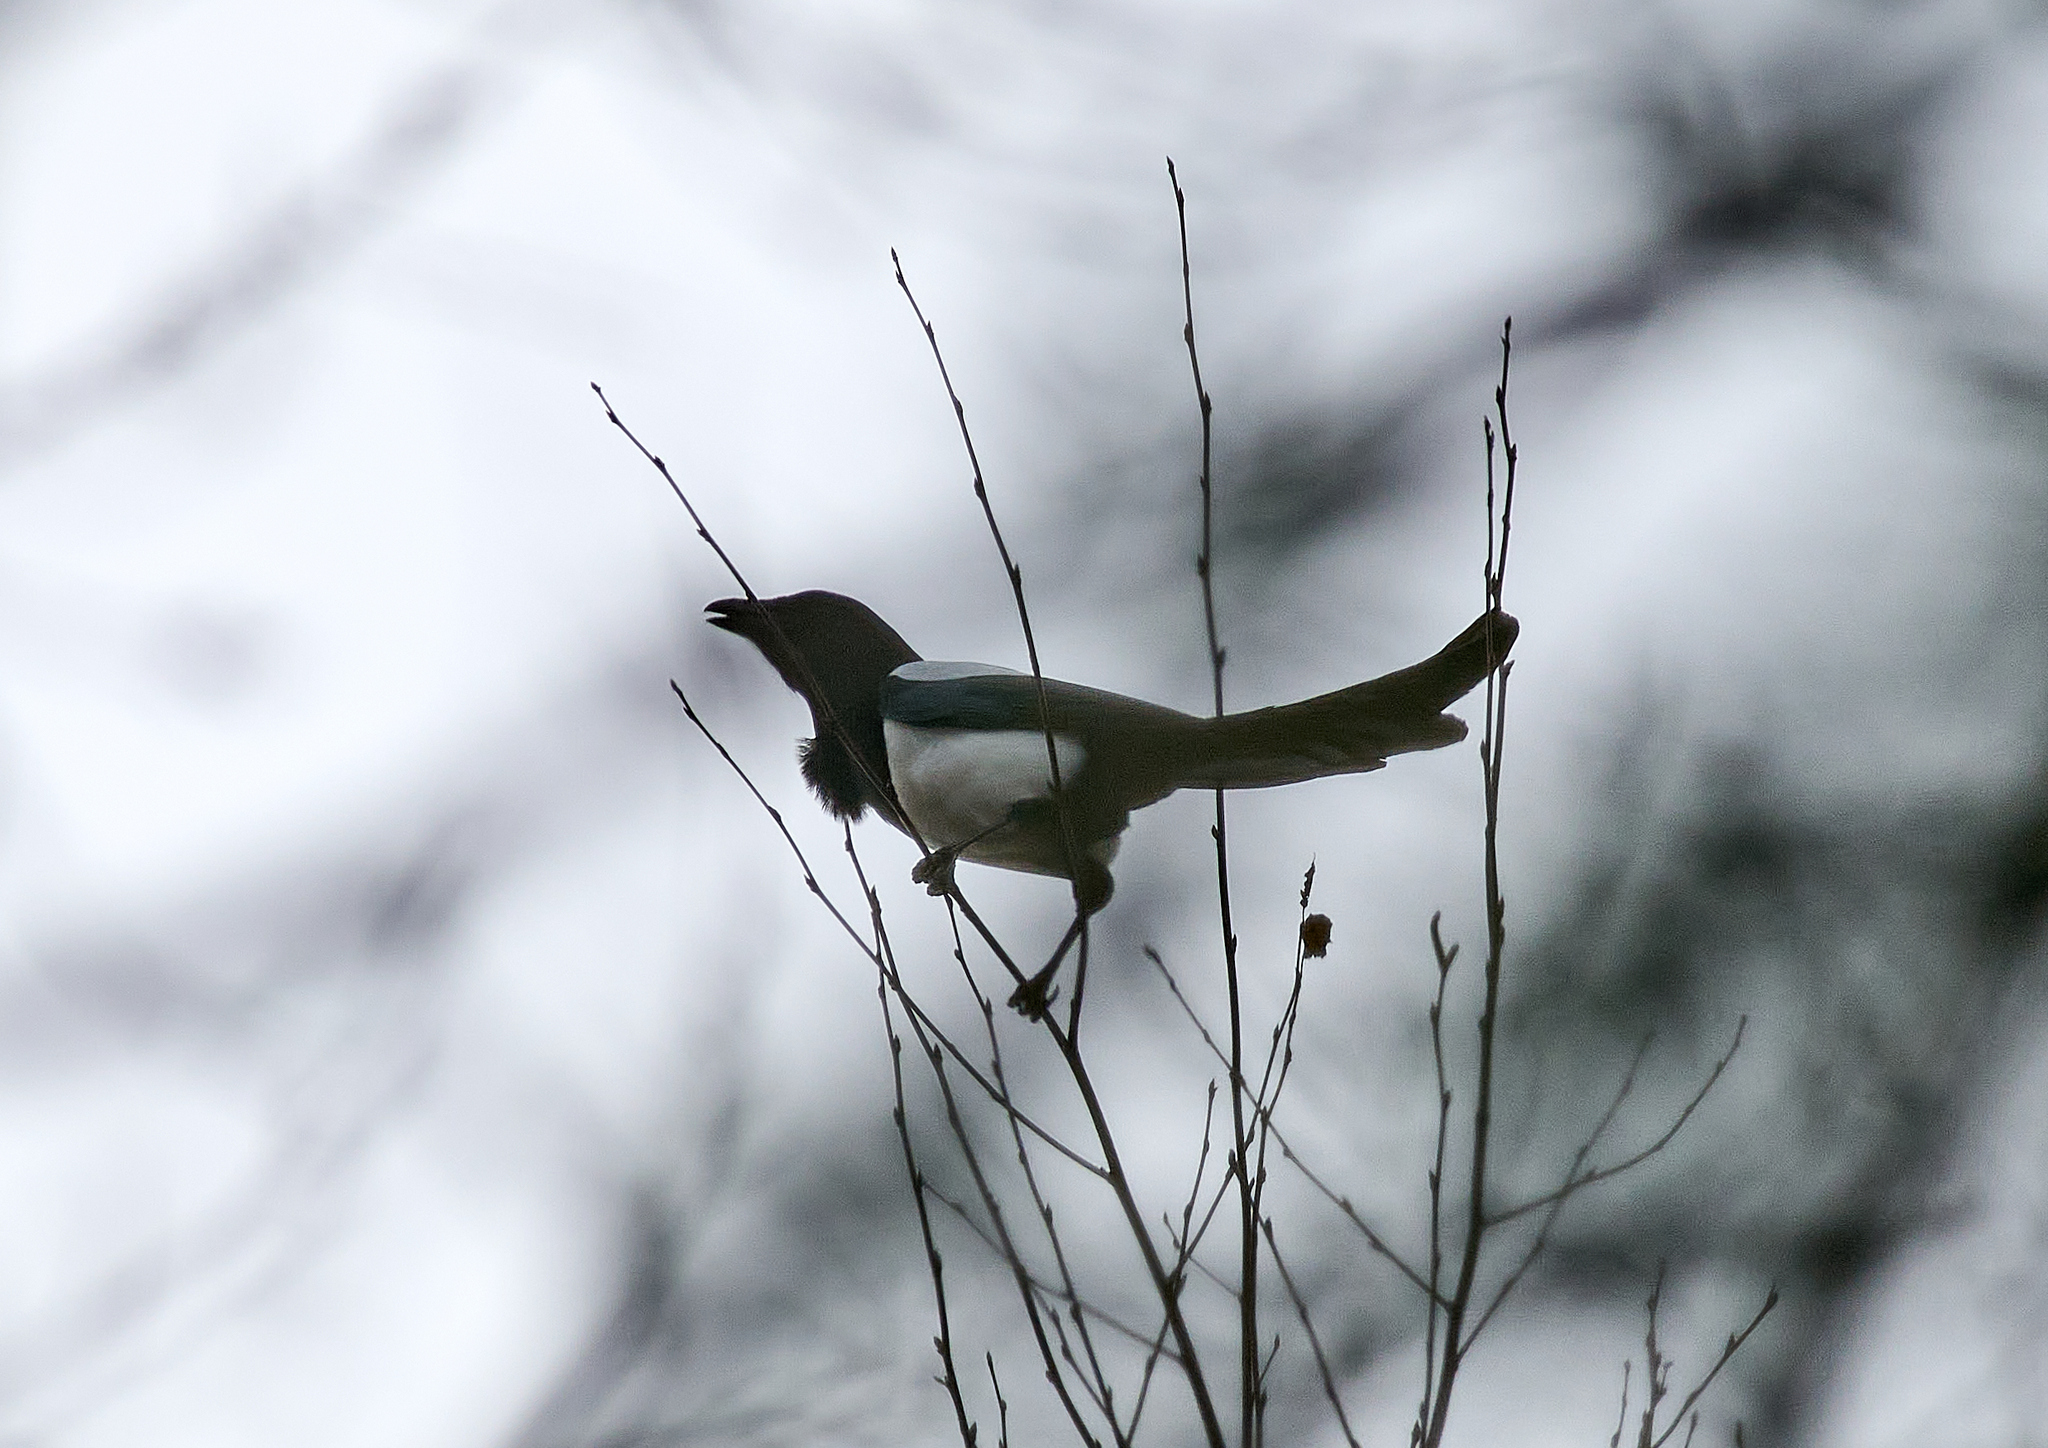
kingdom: Animalia
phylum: Chordata
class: Aves
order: Passeriformes
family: Corvidae
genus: Pica
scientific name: Pica pica
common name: Eurasian magpie
